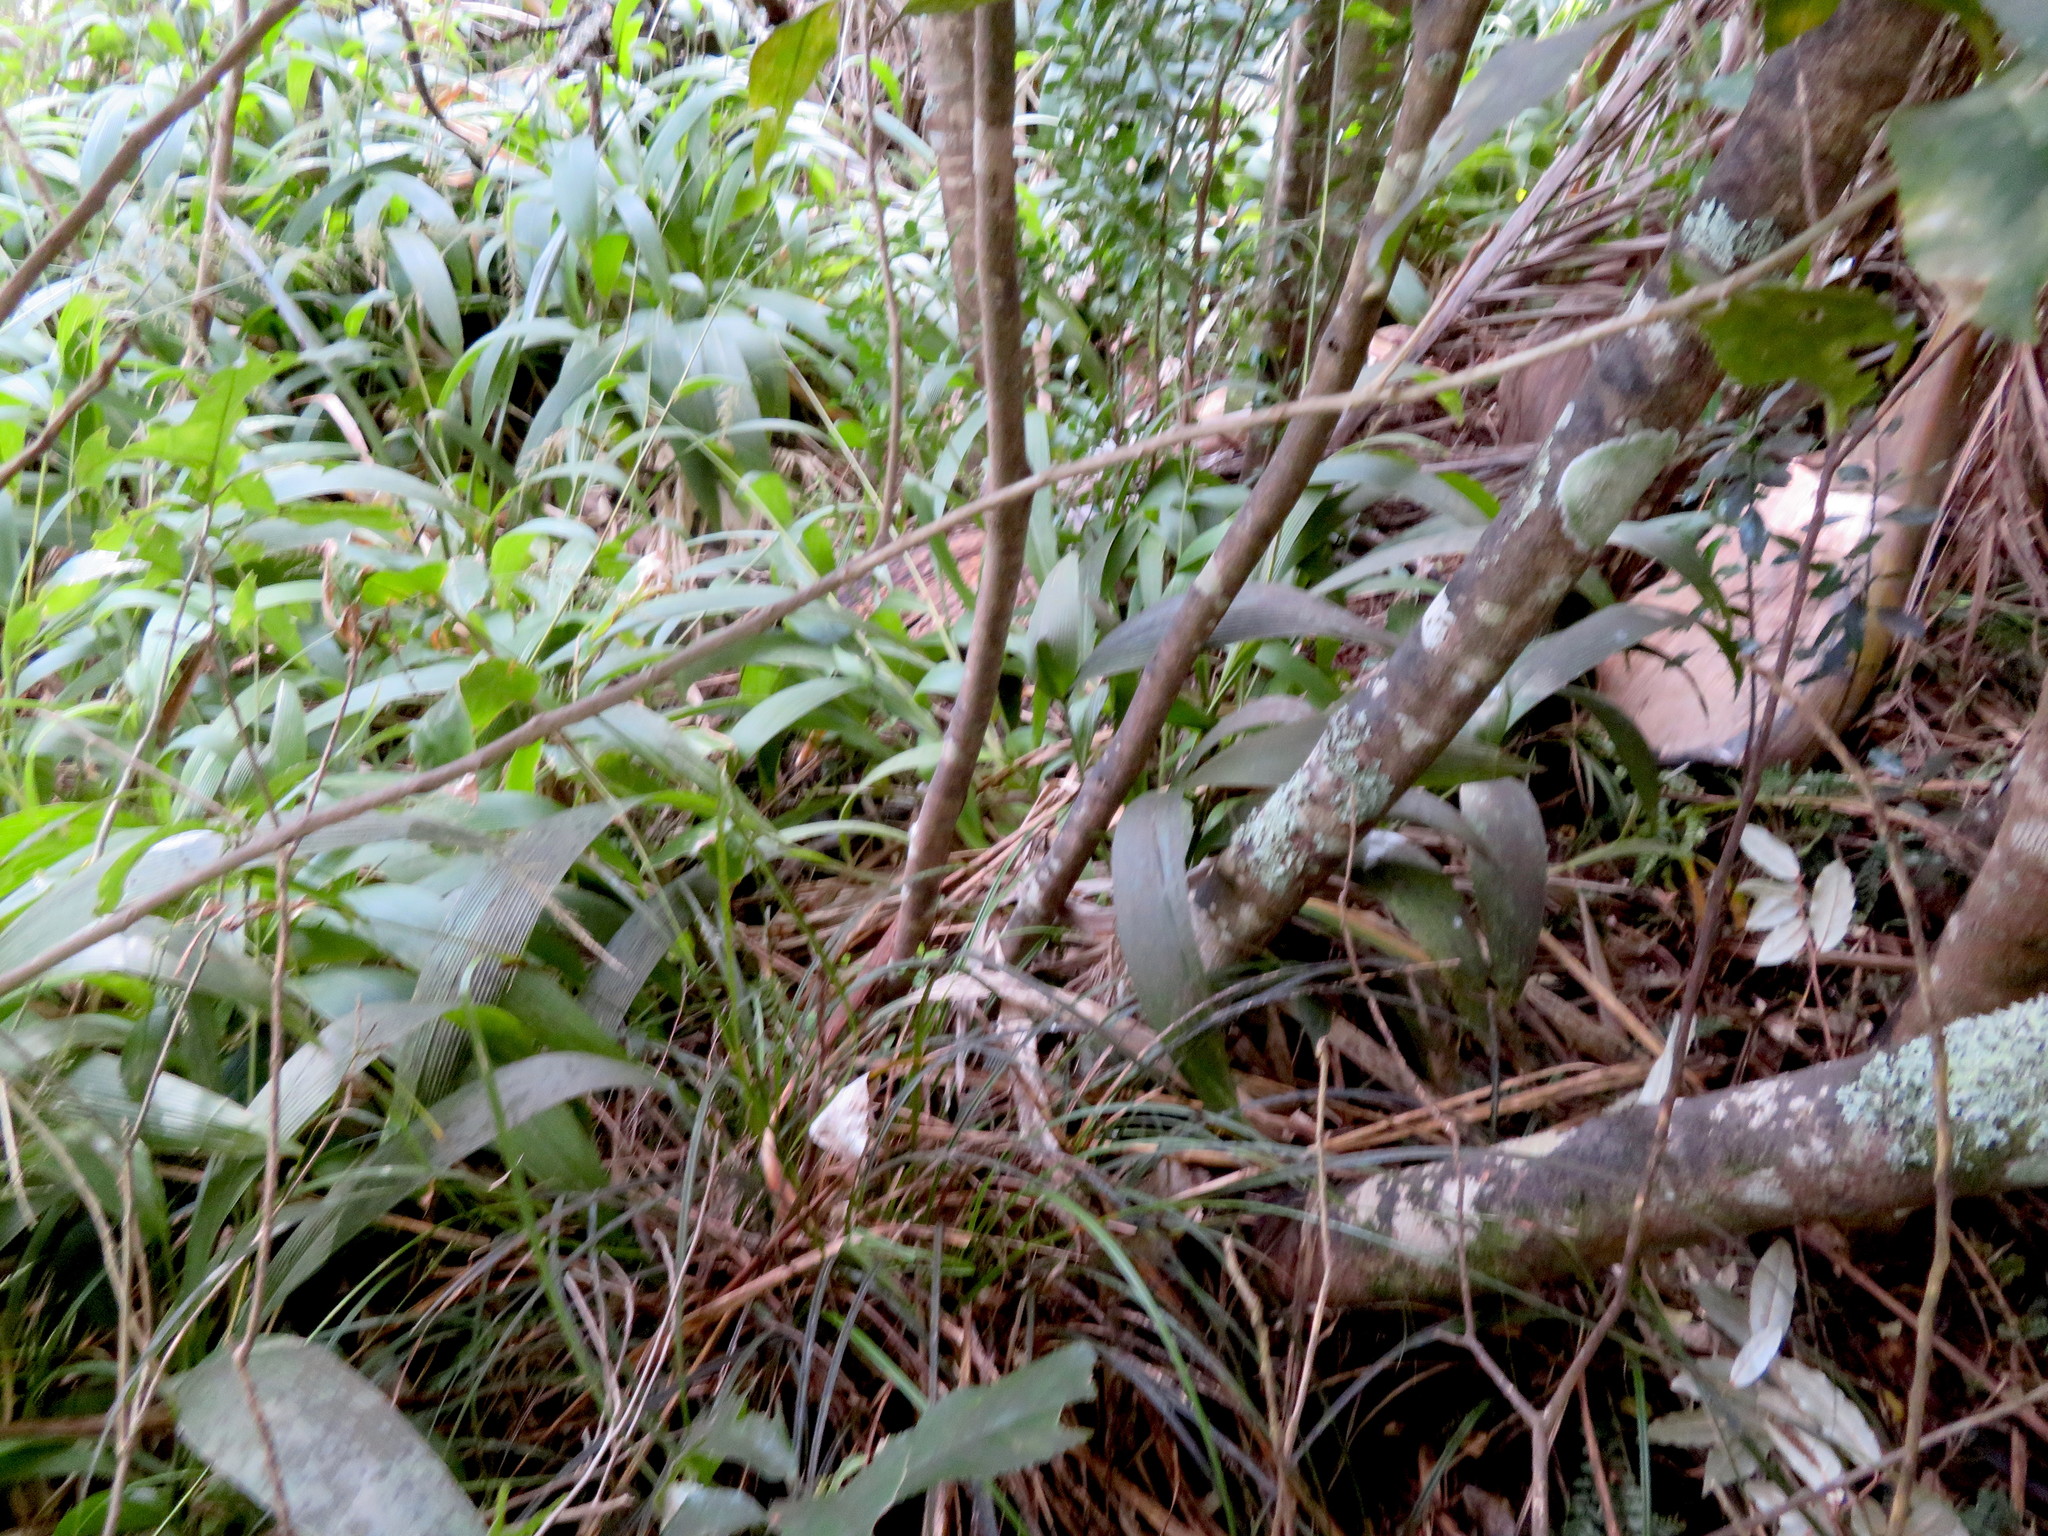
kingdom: Plantae
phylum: Tracheophyta
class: Magnoliopsida
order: Rosales
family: Elaeagnaceae
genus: Elaeagnus
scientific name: Elaeagnus reflexa
